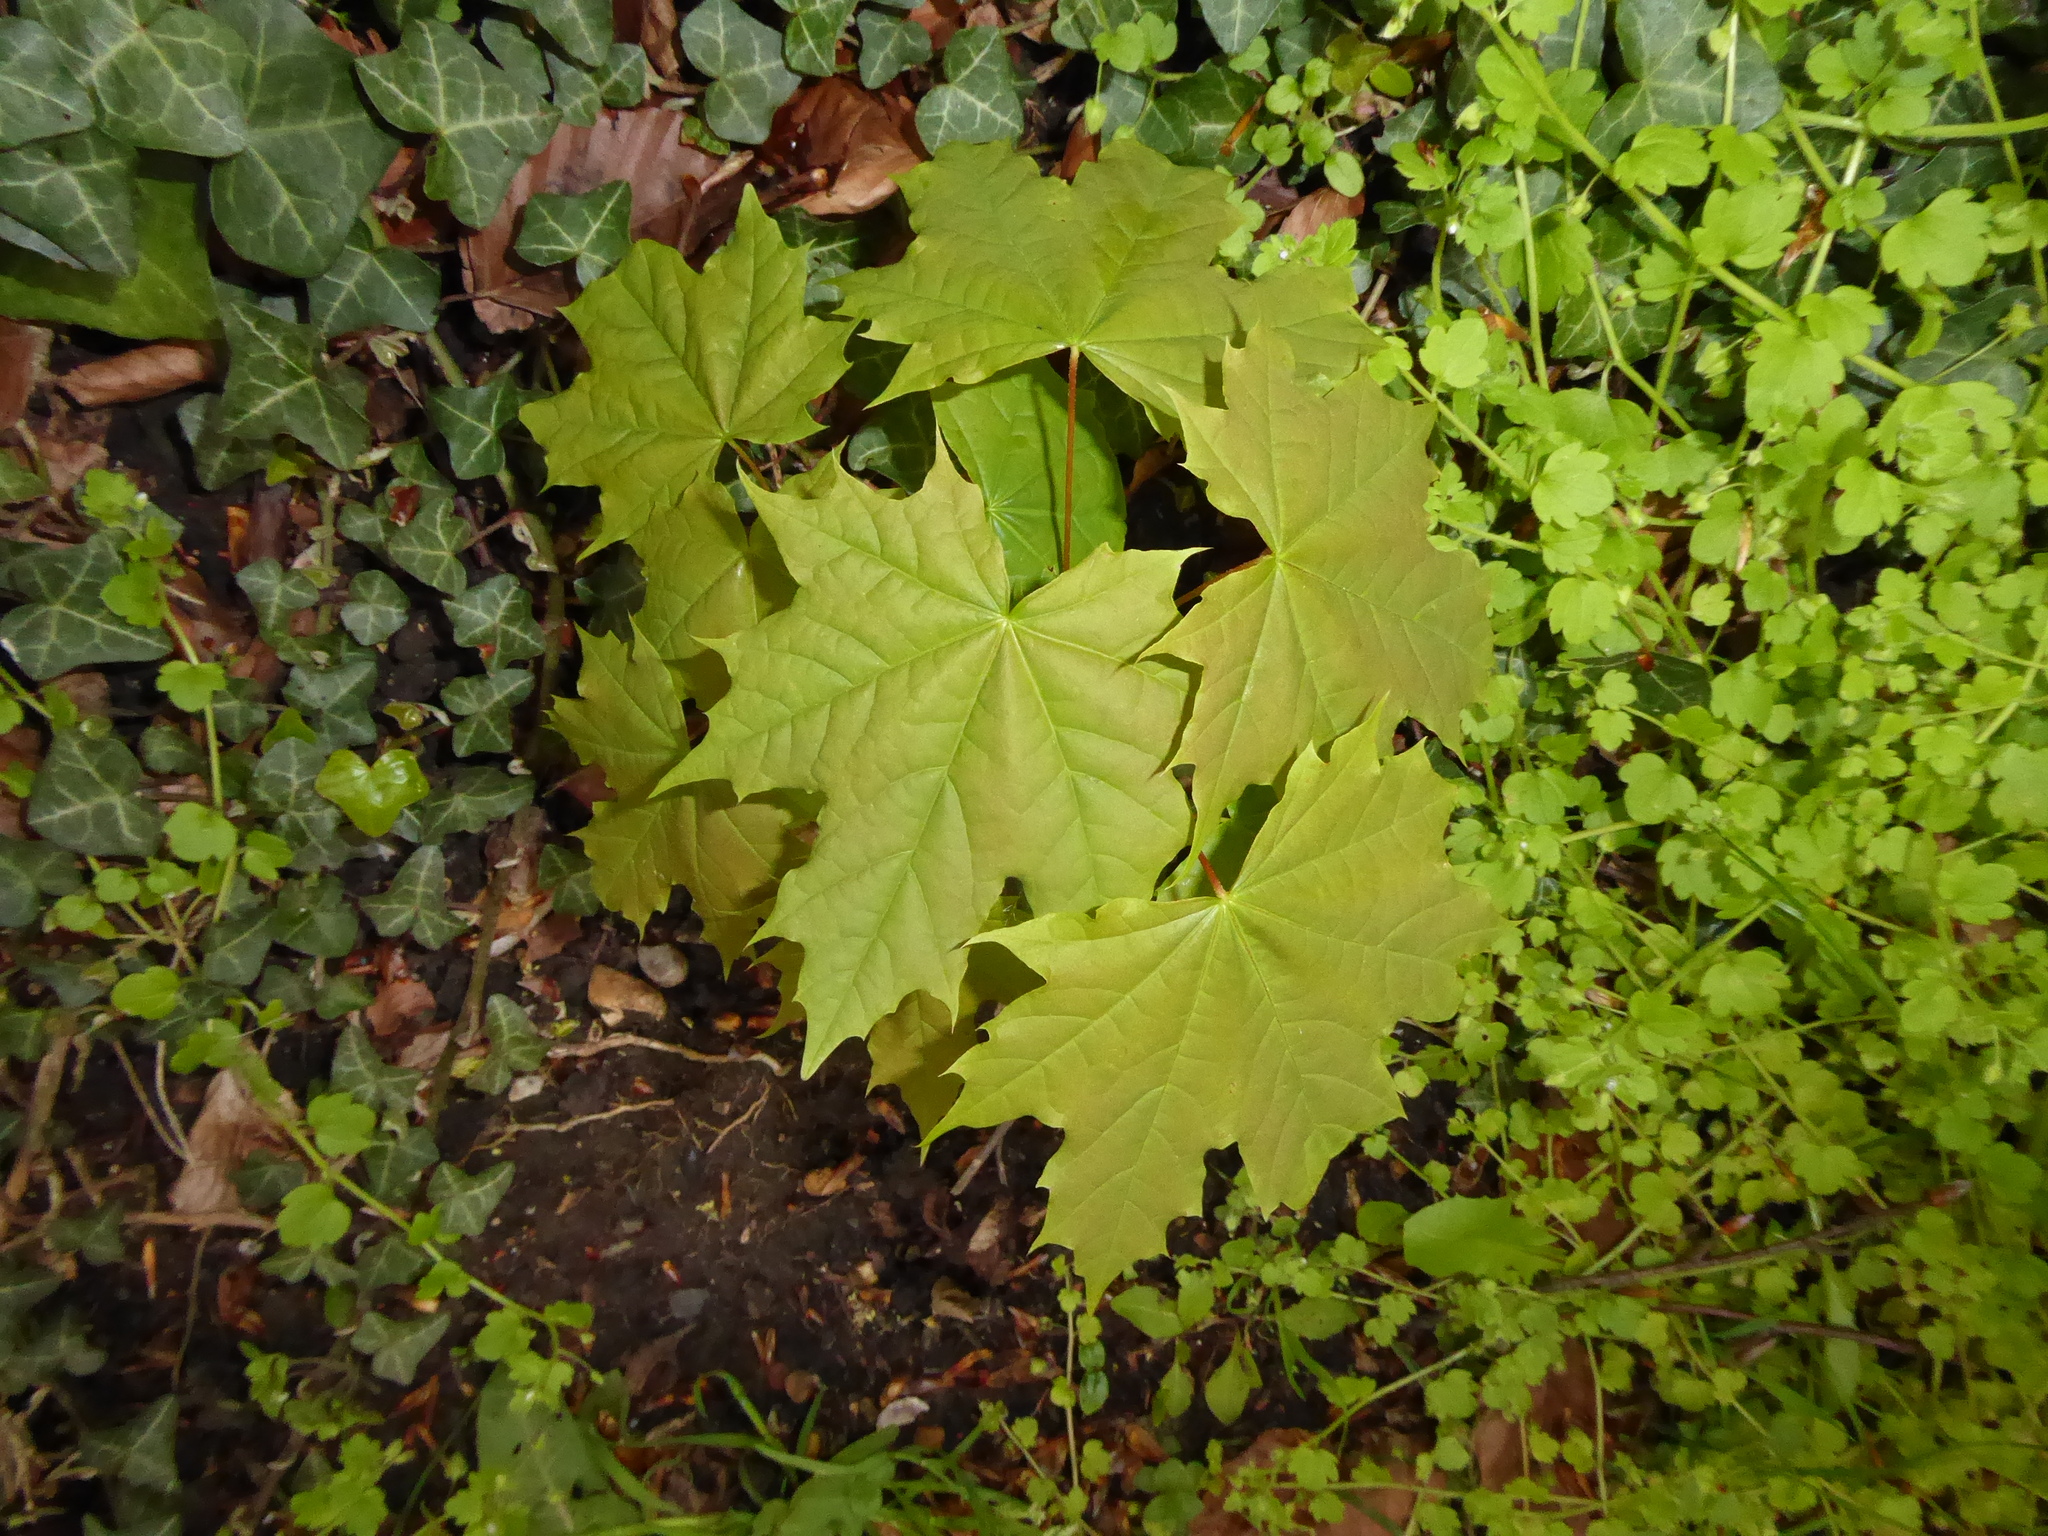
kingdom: Plantae
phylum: Tracheophyta
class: Magnoliopsida
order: Sapindales
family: Sapindaceae
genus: Acer
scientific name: Acer platanoides
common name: Norway maple
